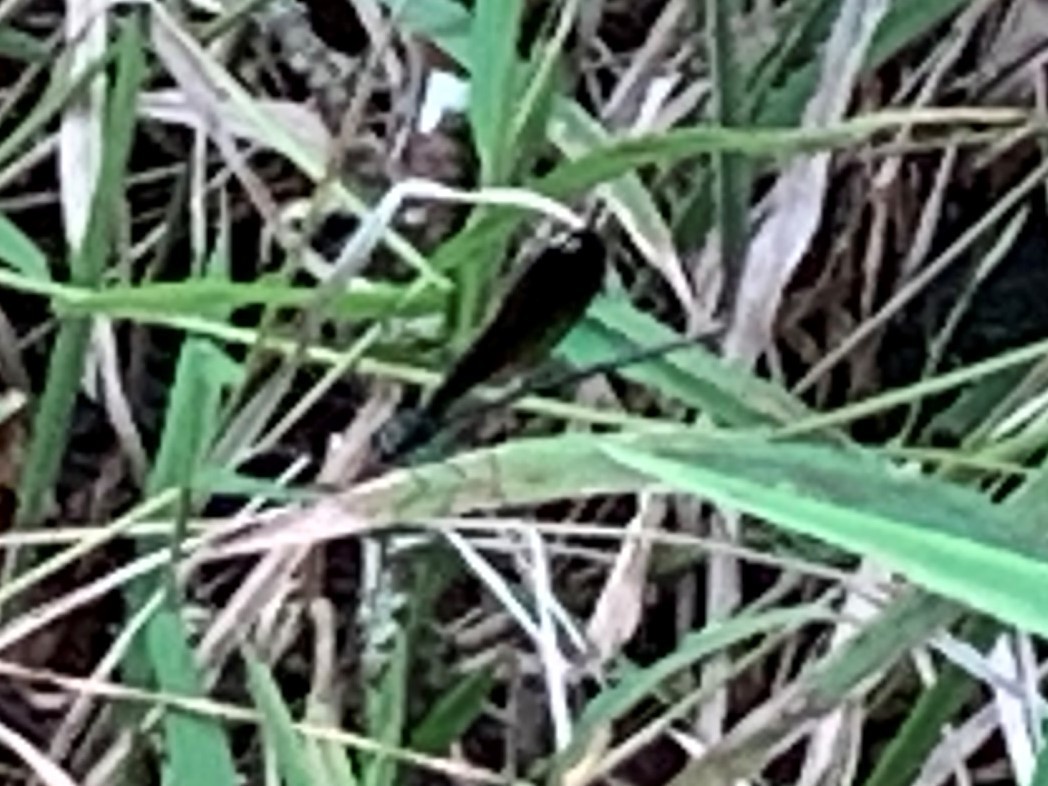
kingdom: Animalia
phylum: Arthropoda
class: Insecta
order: Odonata
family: Calopterygidae
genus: Calopteryx
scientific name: Calopteryx maculata
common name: Ebony jewelwing
